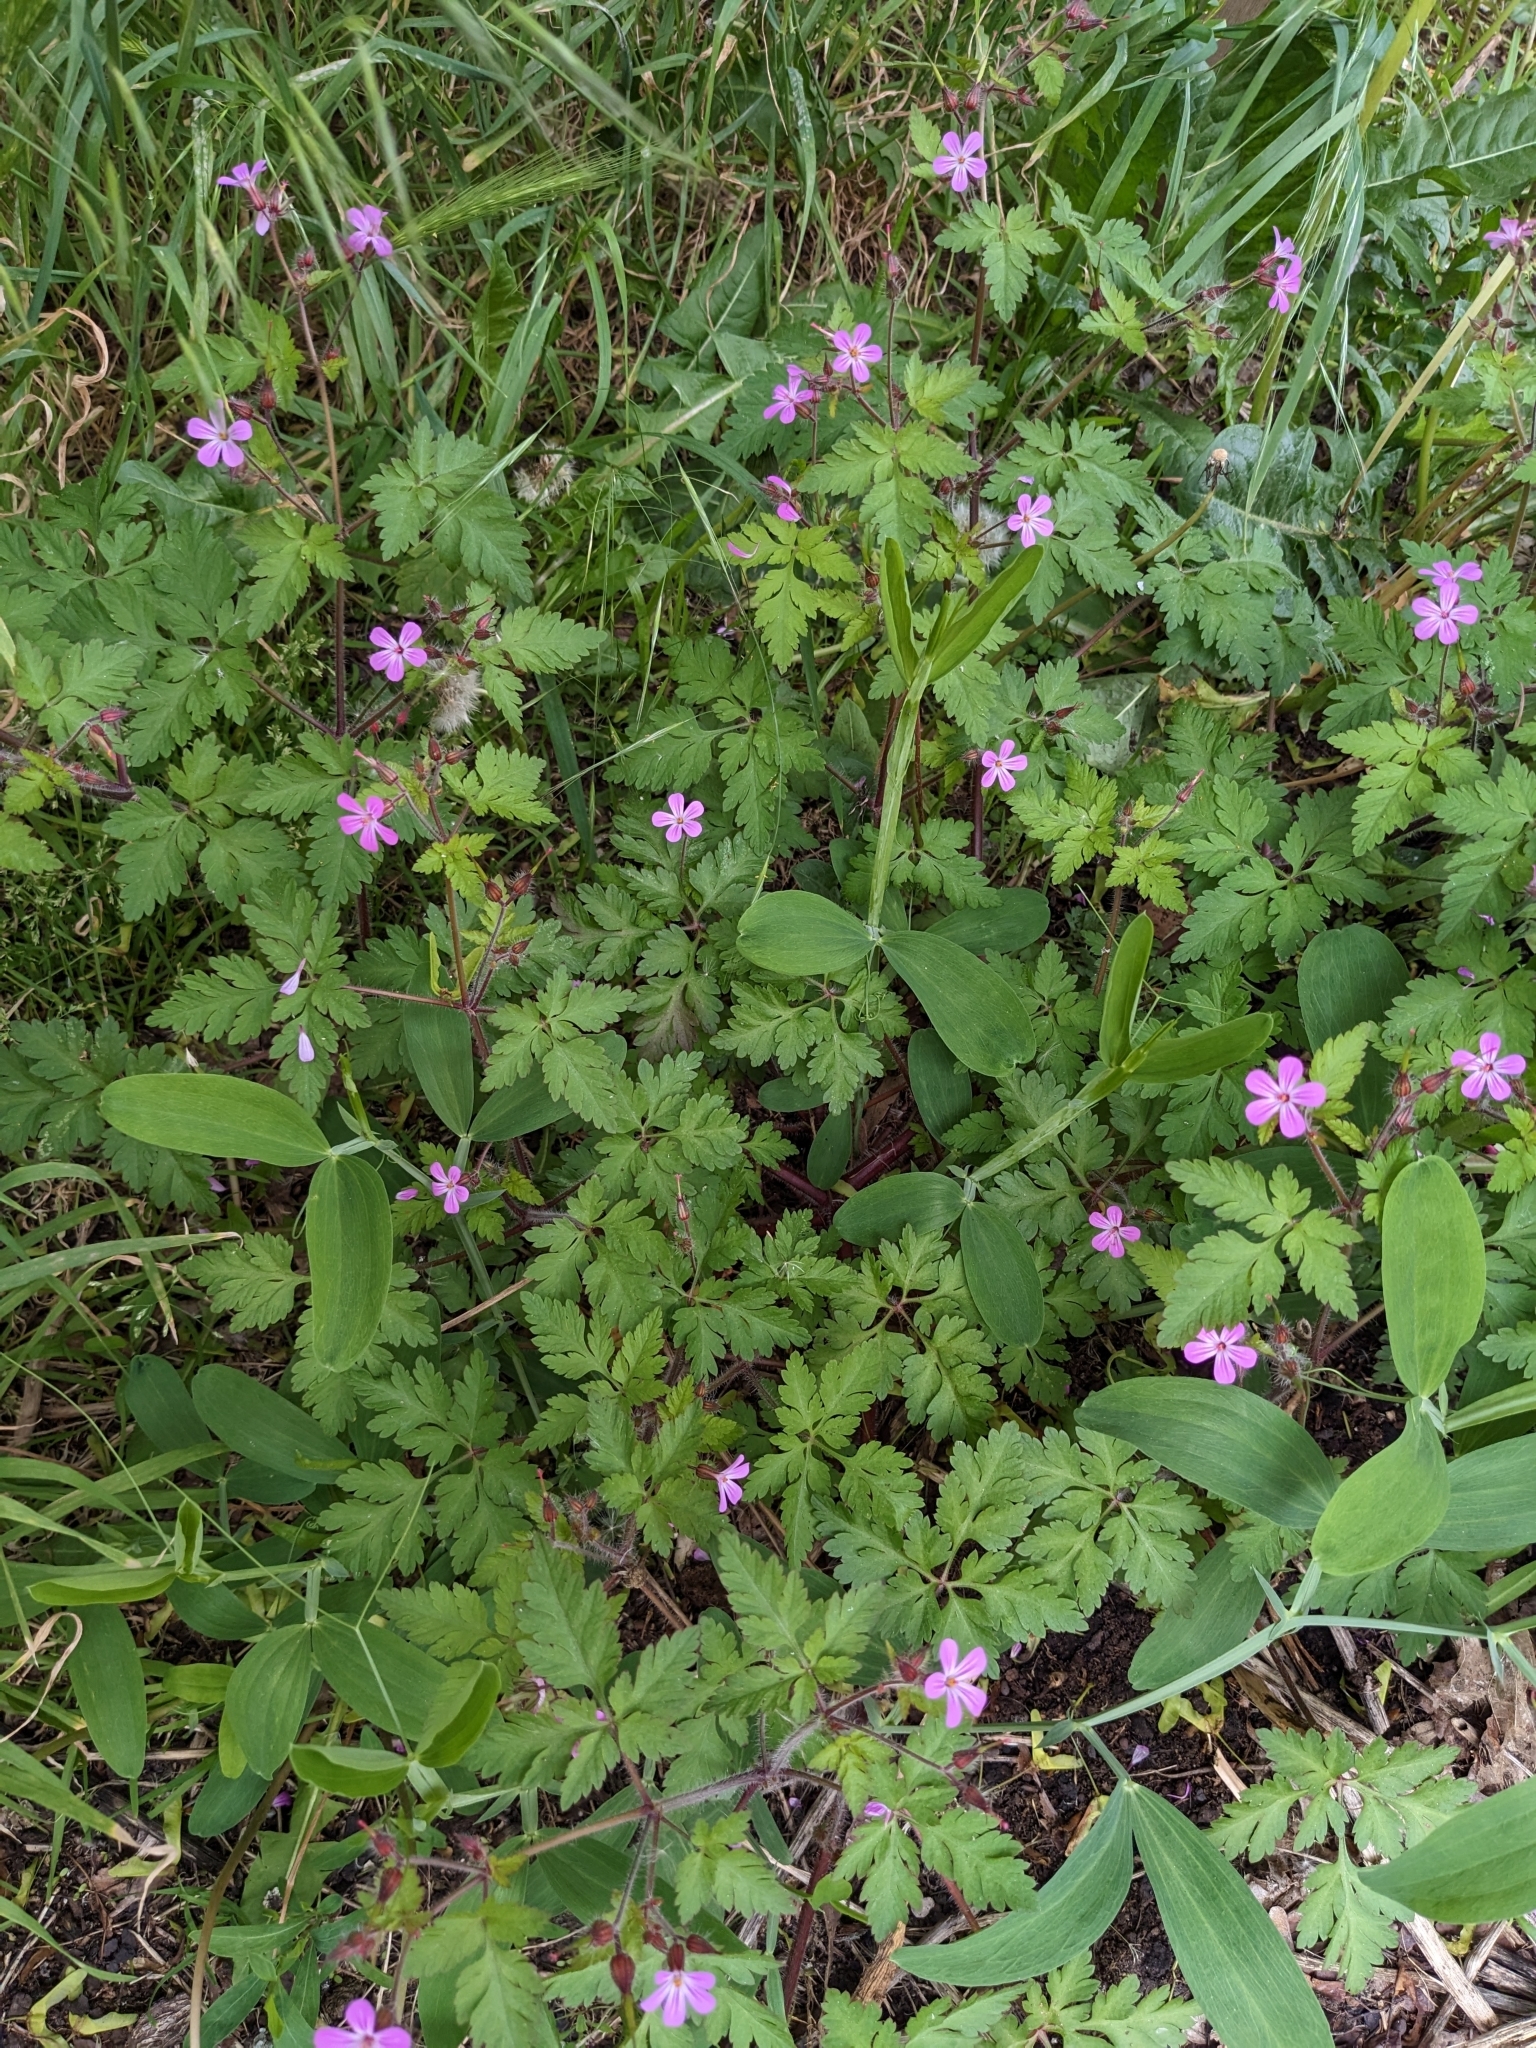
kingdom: Plantae
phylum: Tracheophyta
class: Magnoliopsida
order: Geraniales
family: Geraniaceae
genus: Geranium
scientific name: Geranium robertianum
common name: Herb-robert
